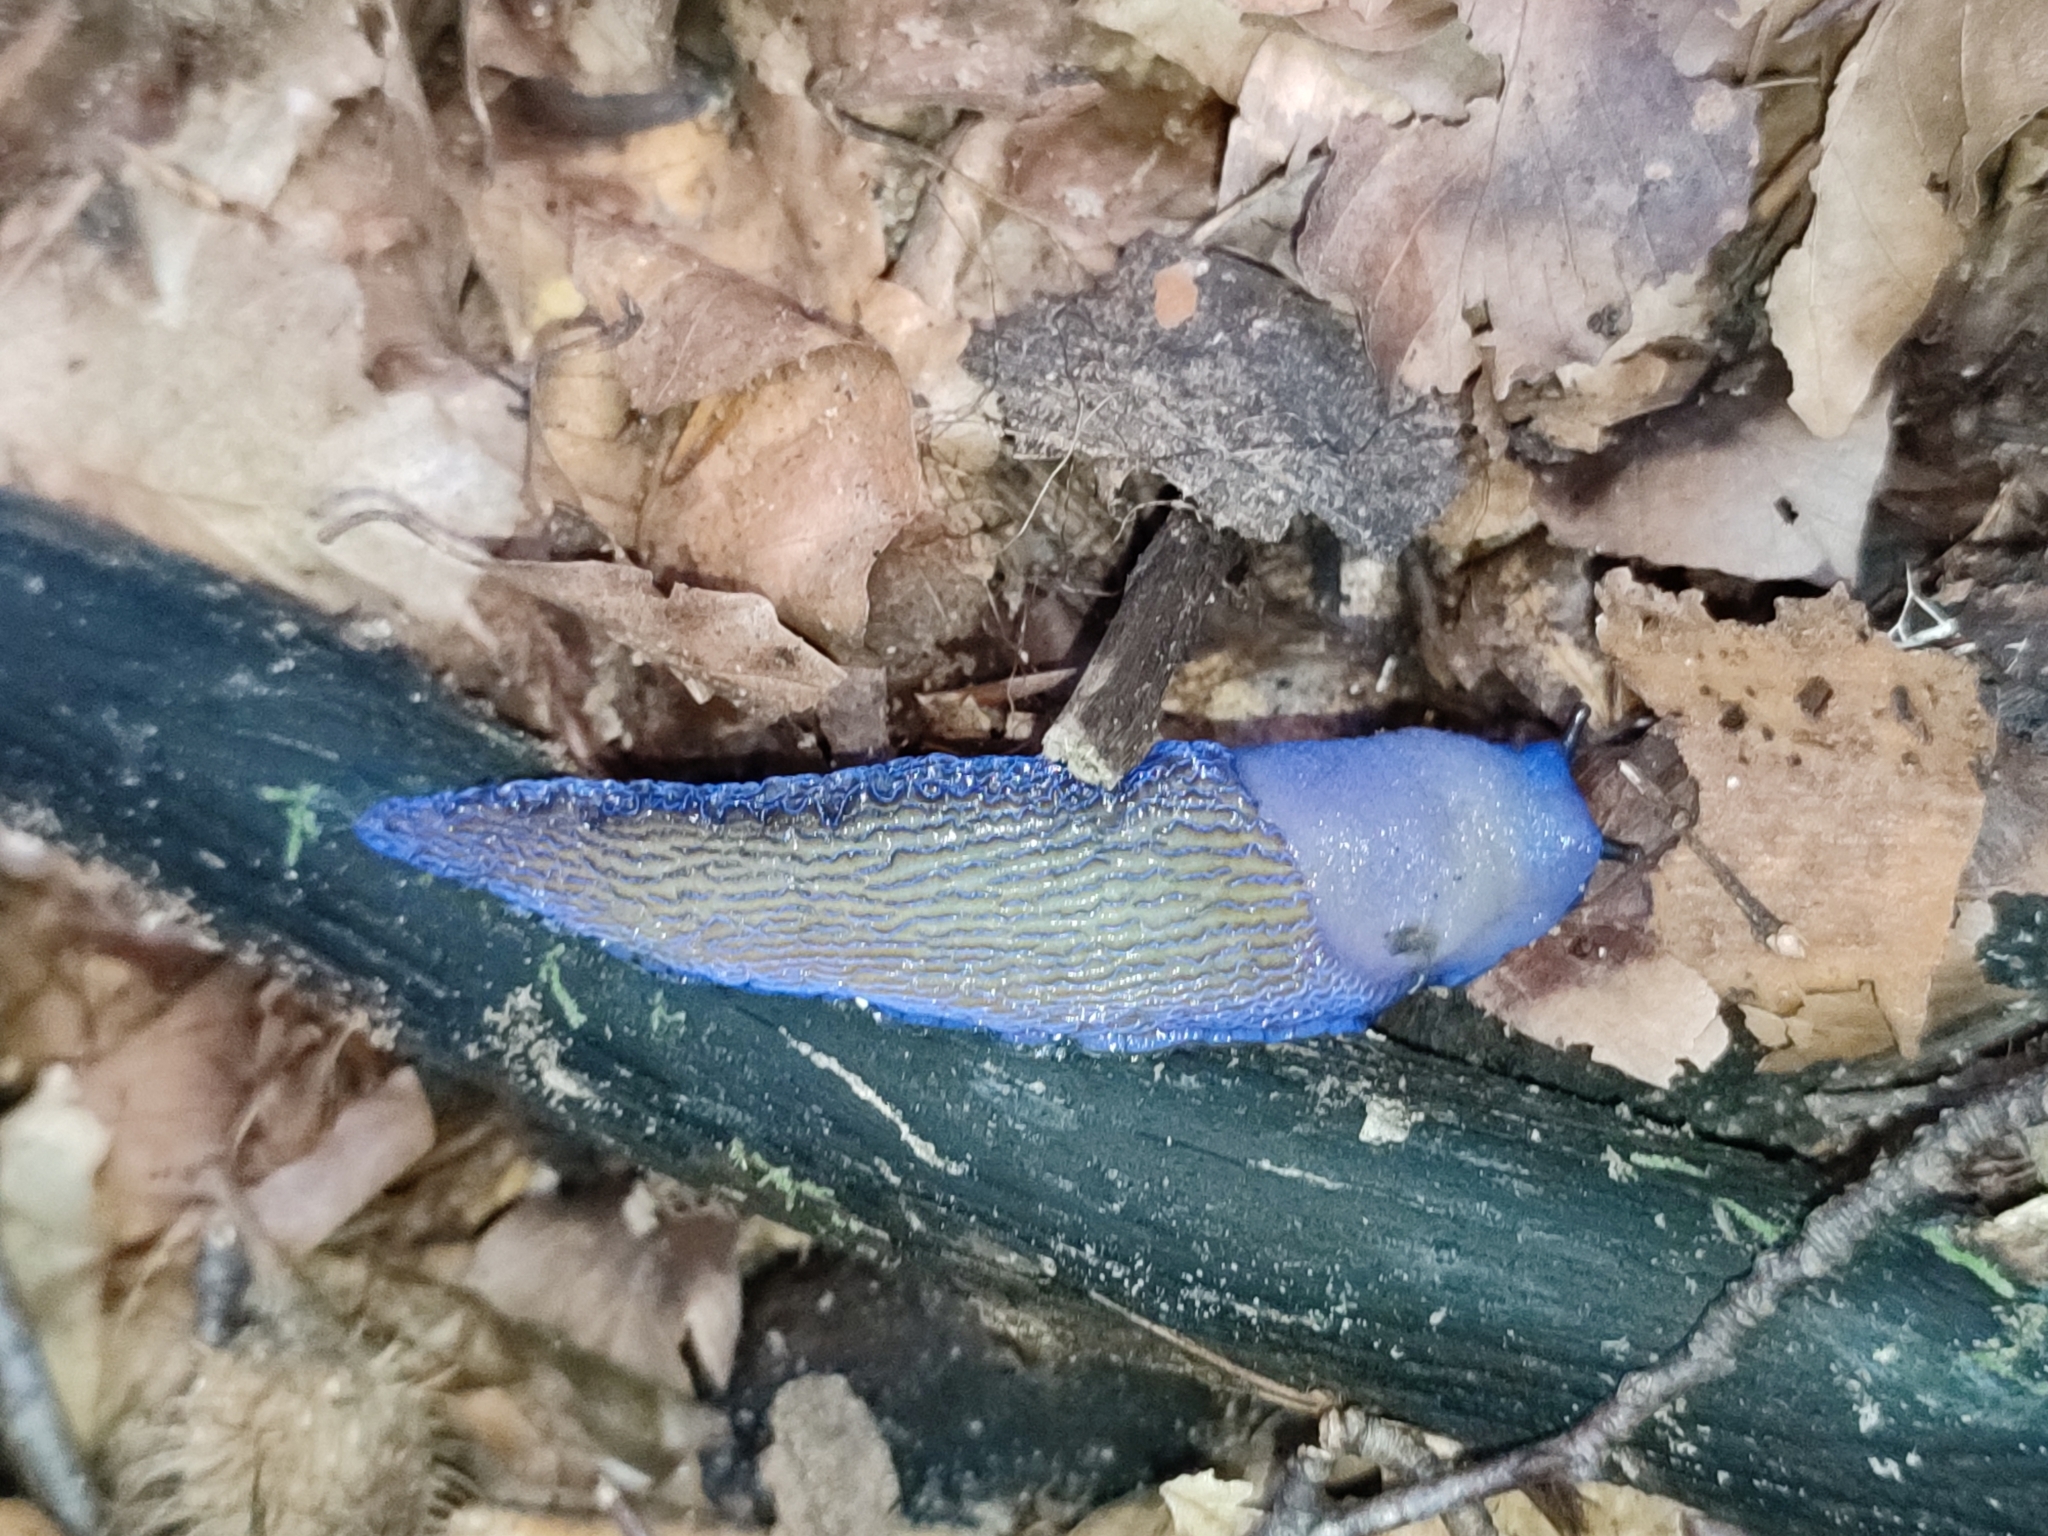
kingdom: Animalia
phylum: Mollusca
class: Gastropoda
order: Stylommatophora
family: Limacidae
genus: Bielzia
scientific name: Bielzia coerulans
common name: Carpathian blue slug
